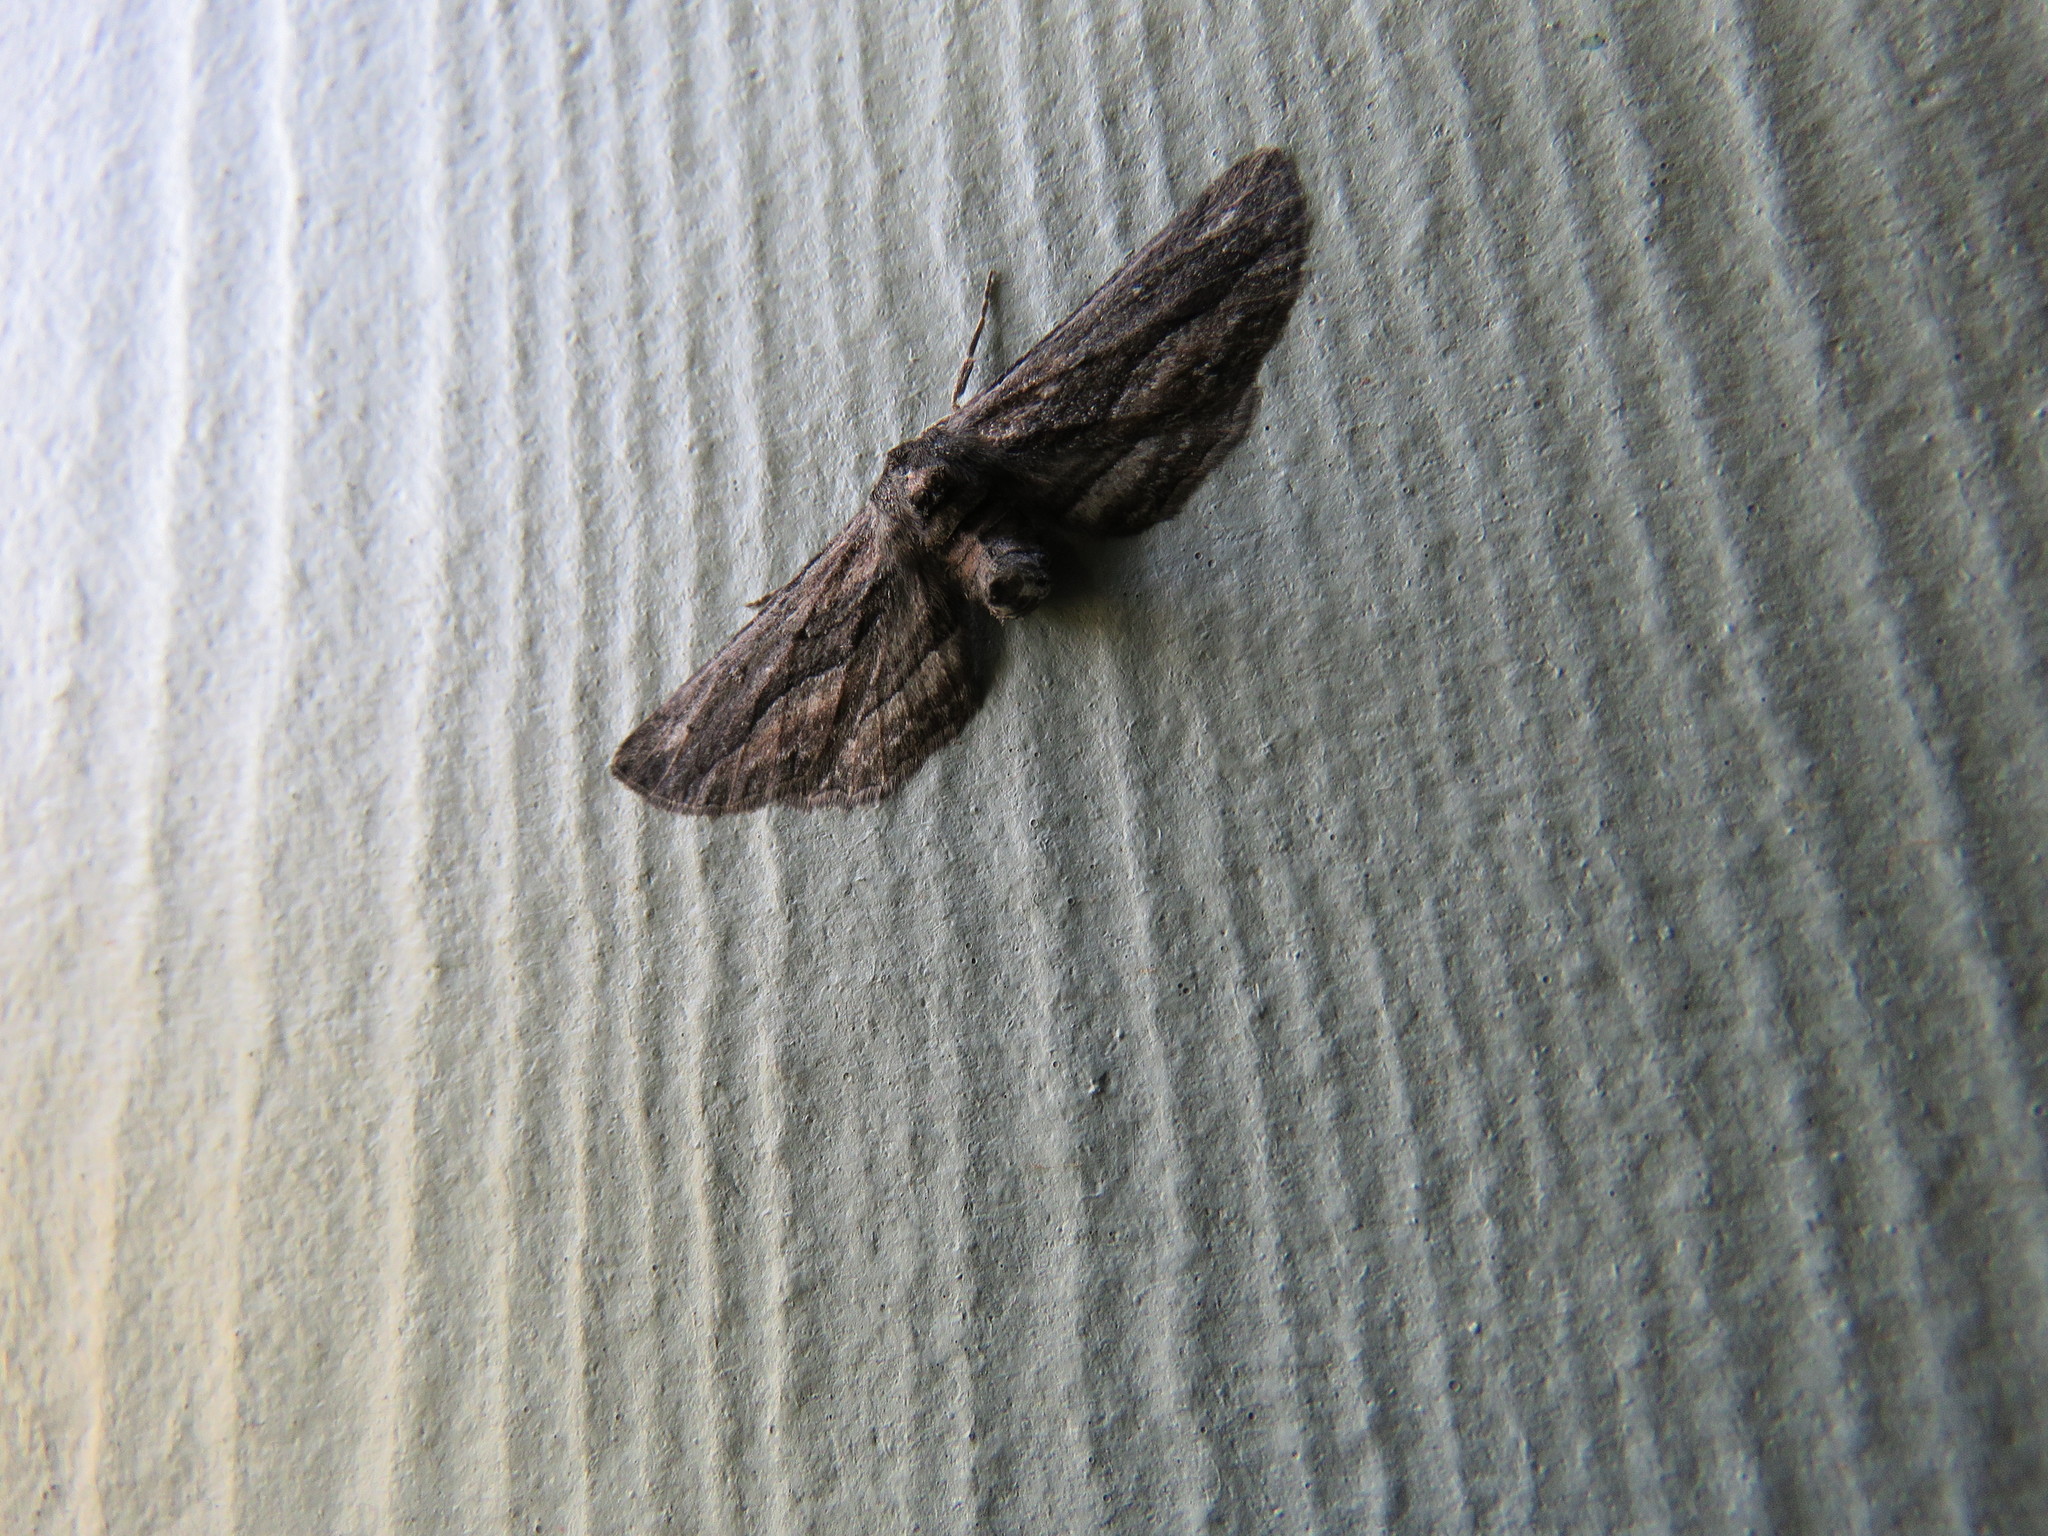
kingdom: Animalia
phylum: Arthropoda
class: Insecta
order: Lepidoptera
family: Geometridae
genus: Glena
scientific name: Glena quinquelinearia
